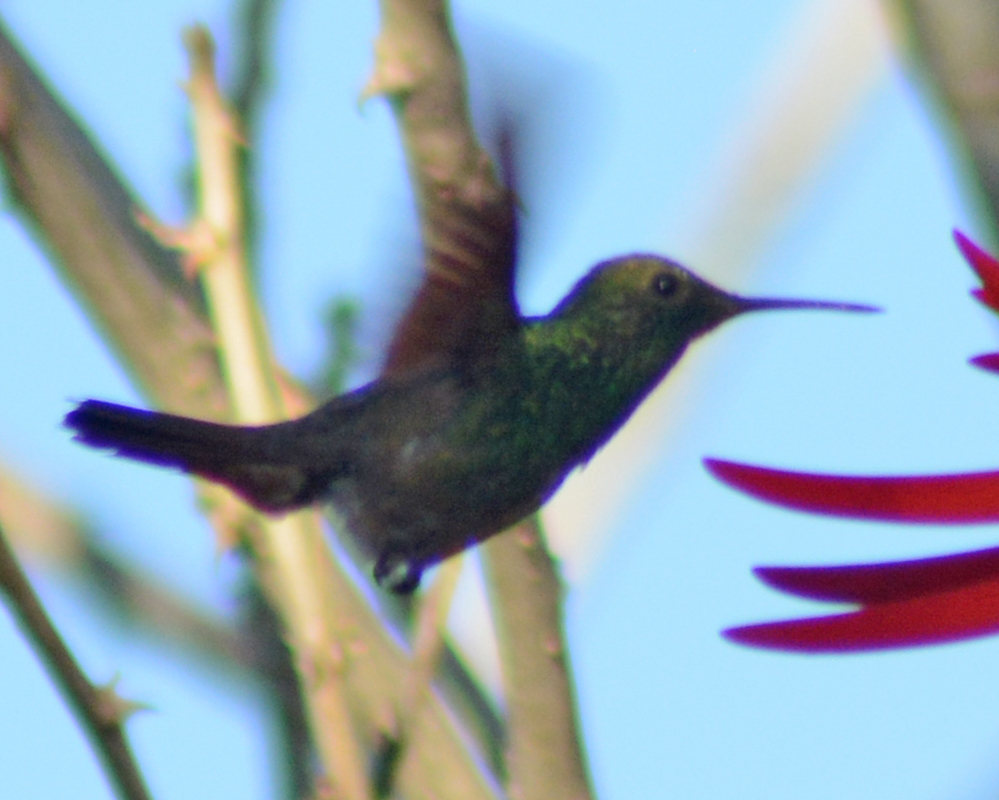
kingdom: Animalia
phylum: Chordata
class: Aves
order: Apodiformes
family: Trochilidae
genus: Saucerottia
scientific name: Saucerottia beryllina
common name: Berylline hummingbird
